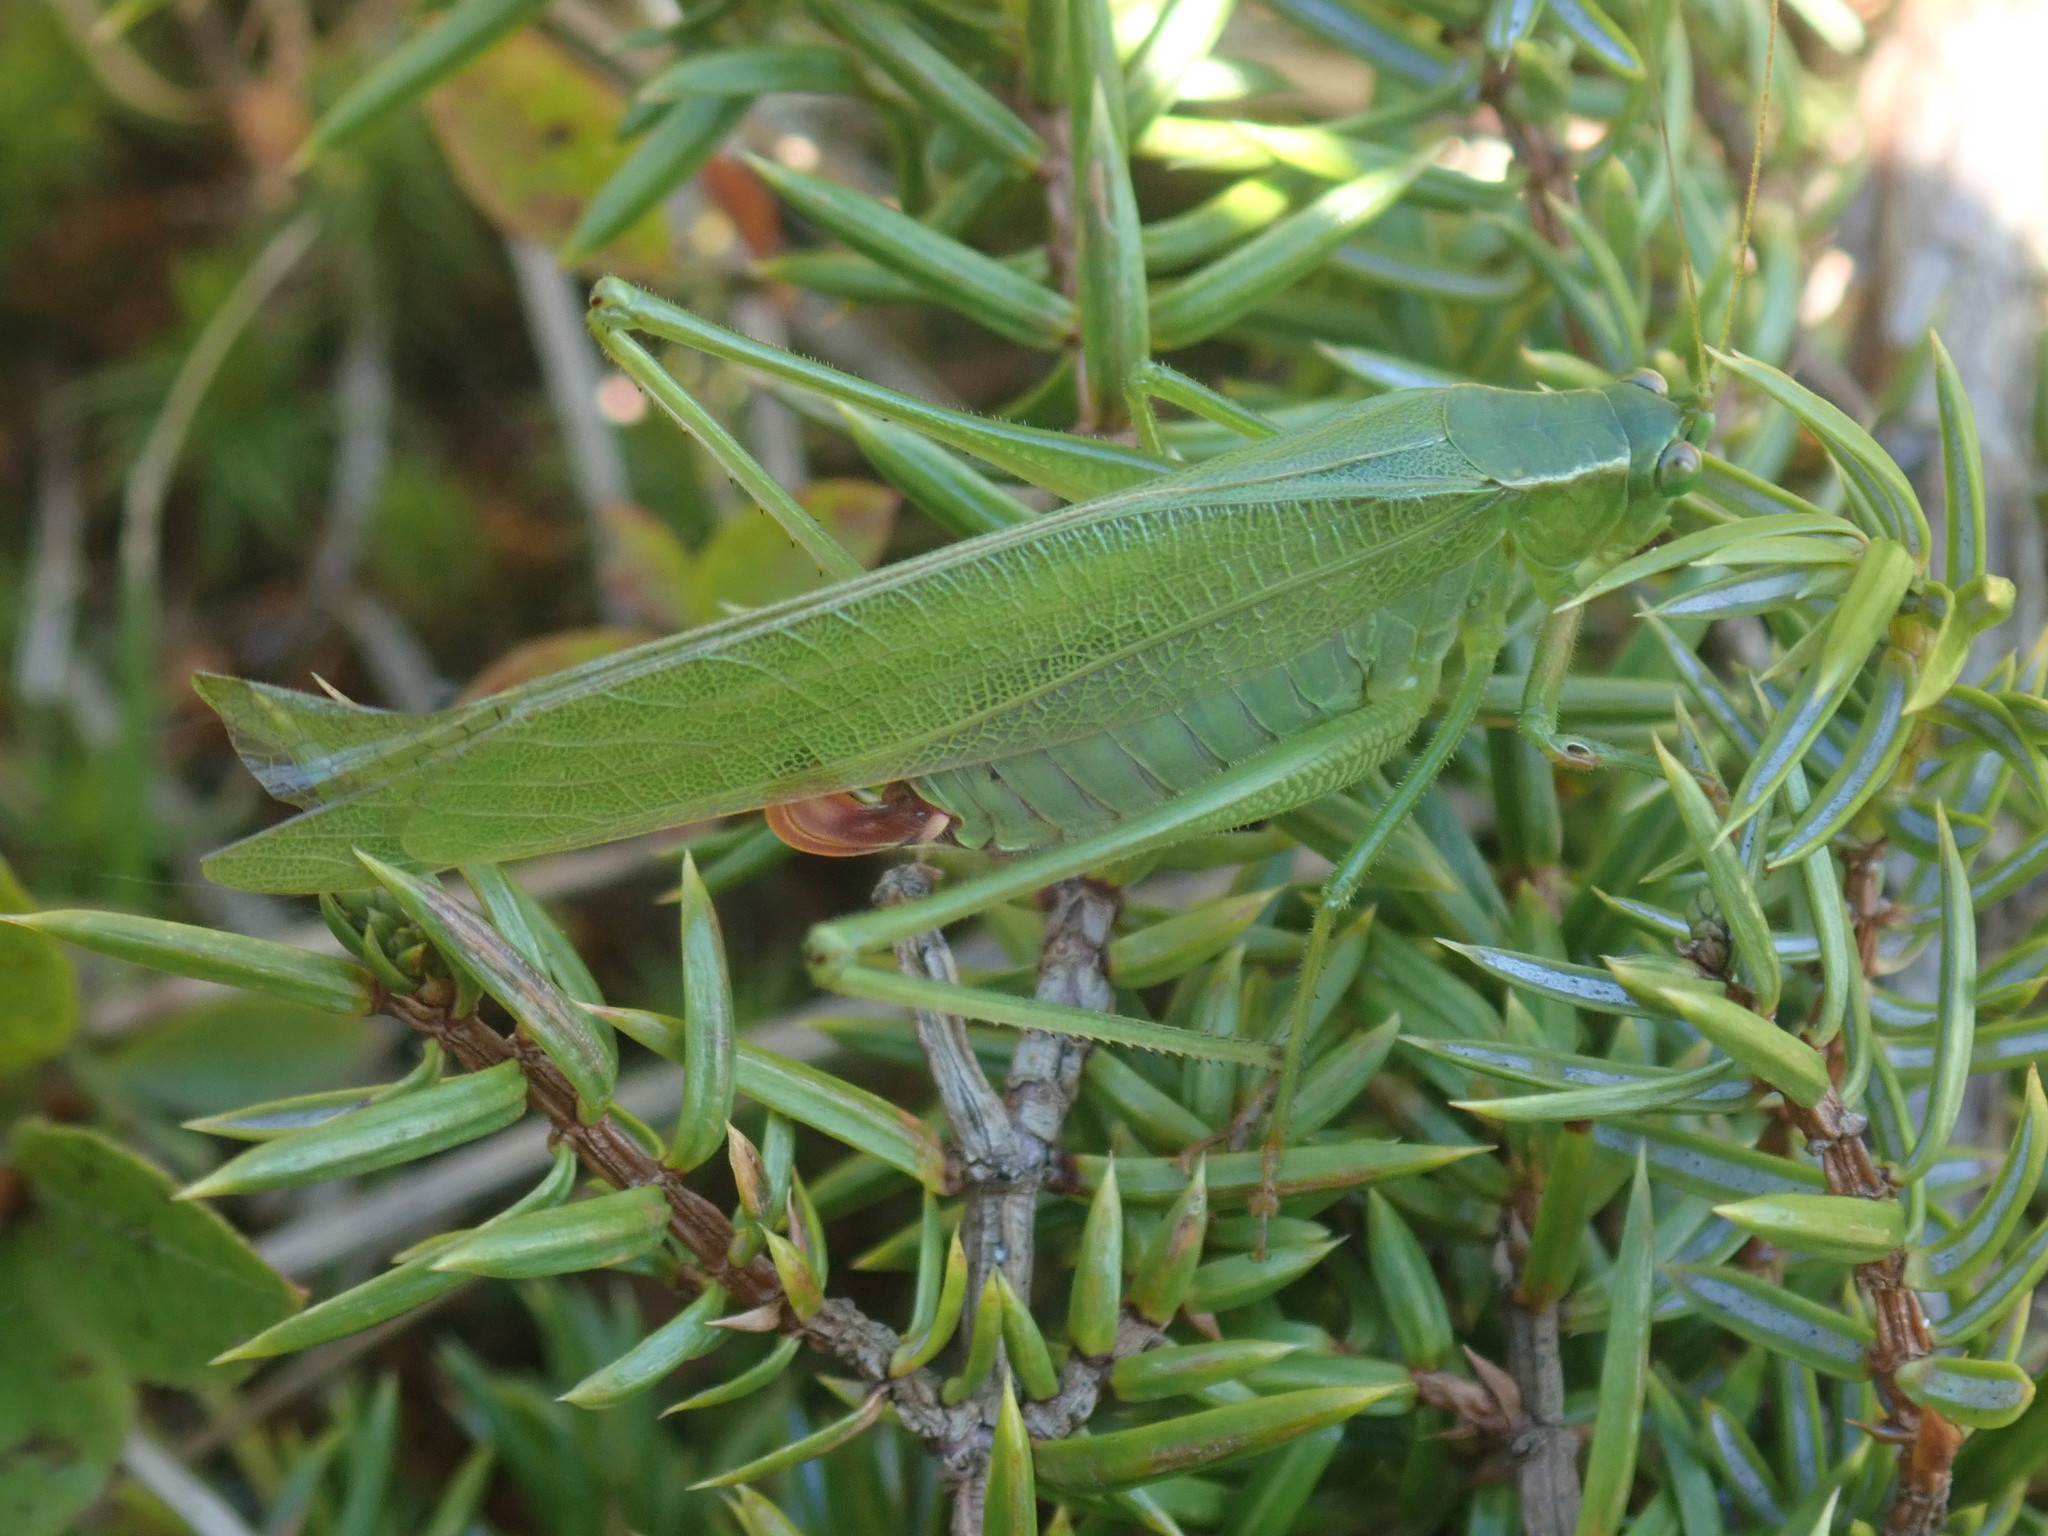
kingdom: Animalia
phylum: Arthropoda
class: Insecta
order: Orthoptera
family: Tettigoniidae
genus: Scudderia
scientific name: Scudderia furcata
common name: Fork-tailed bush katydid
